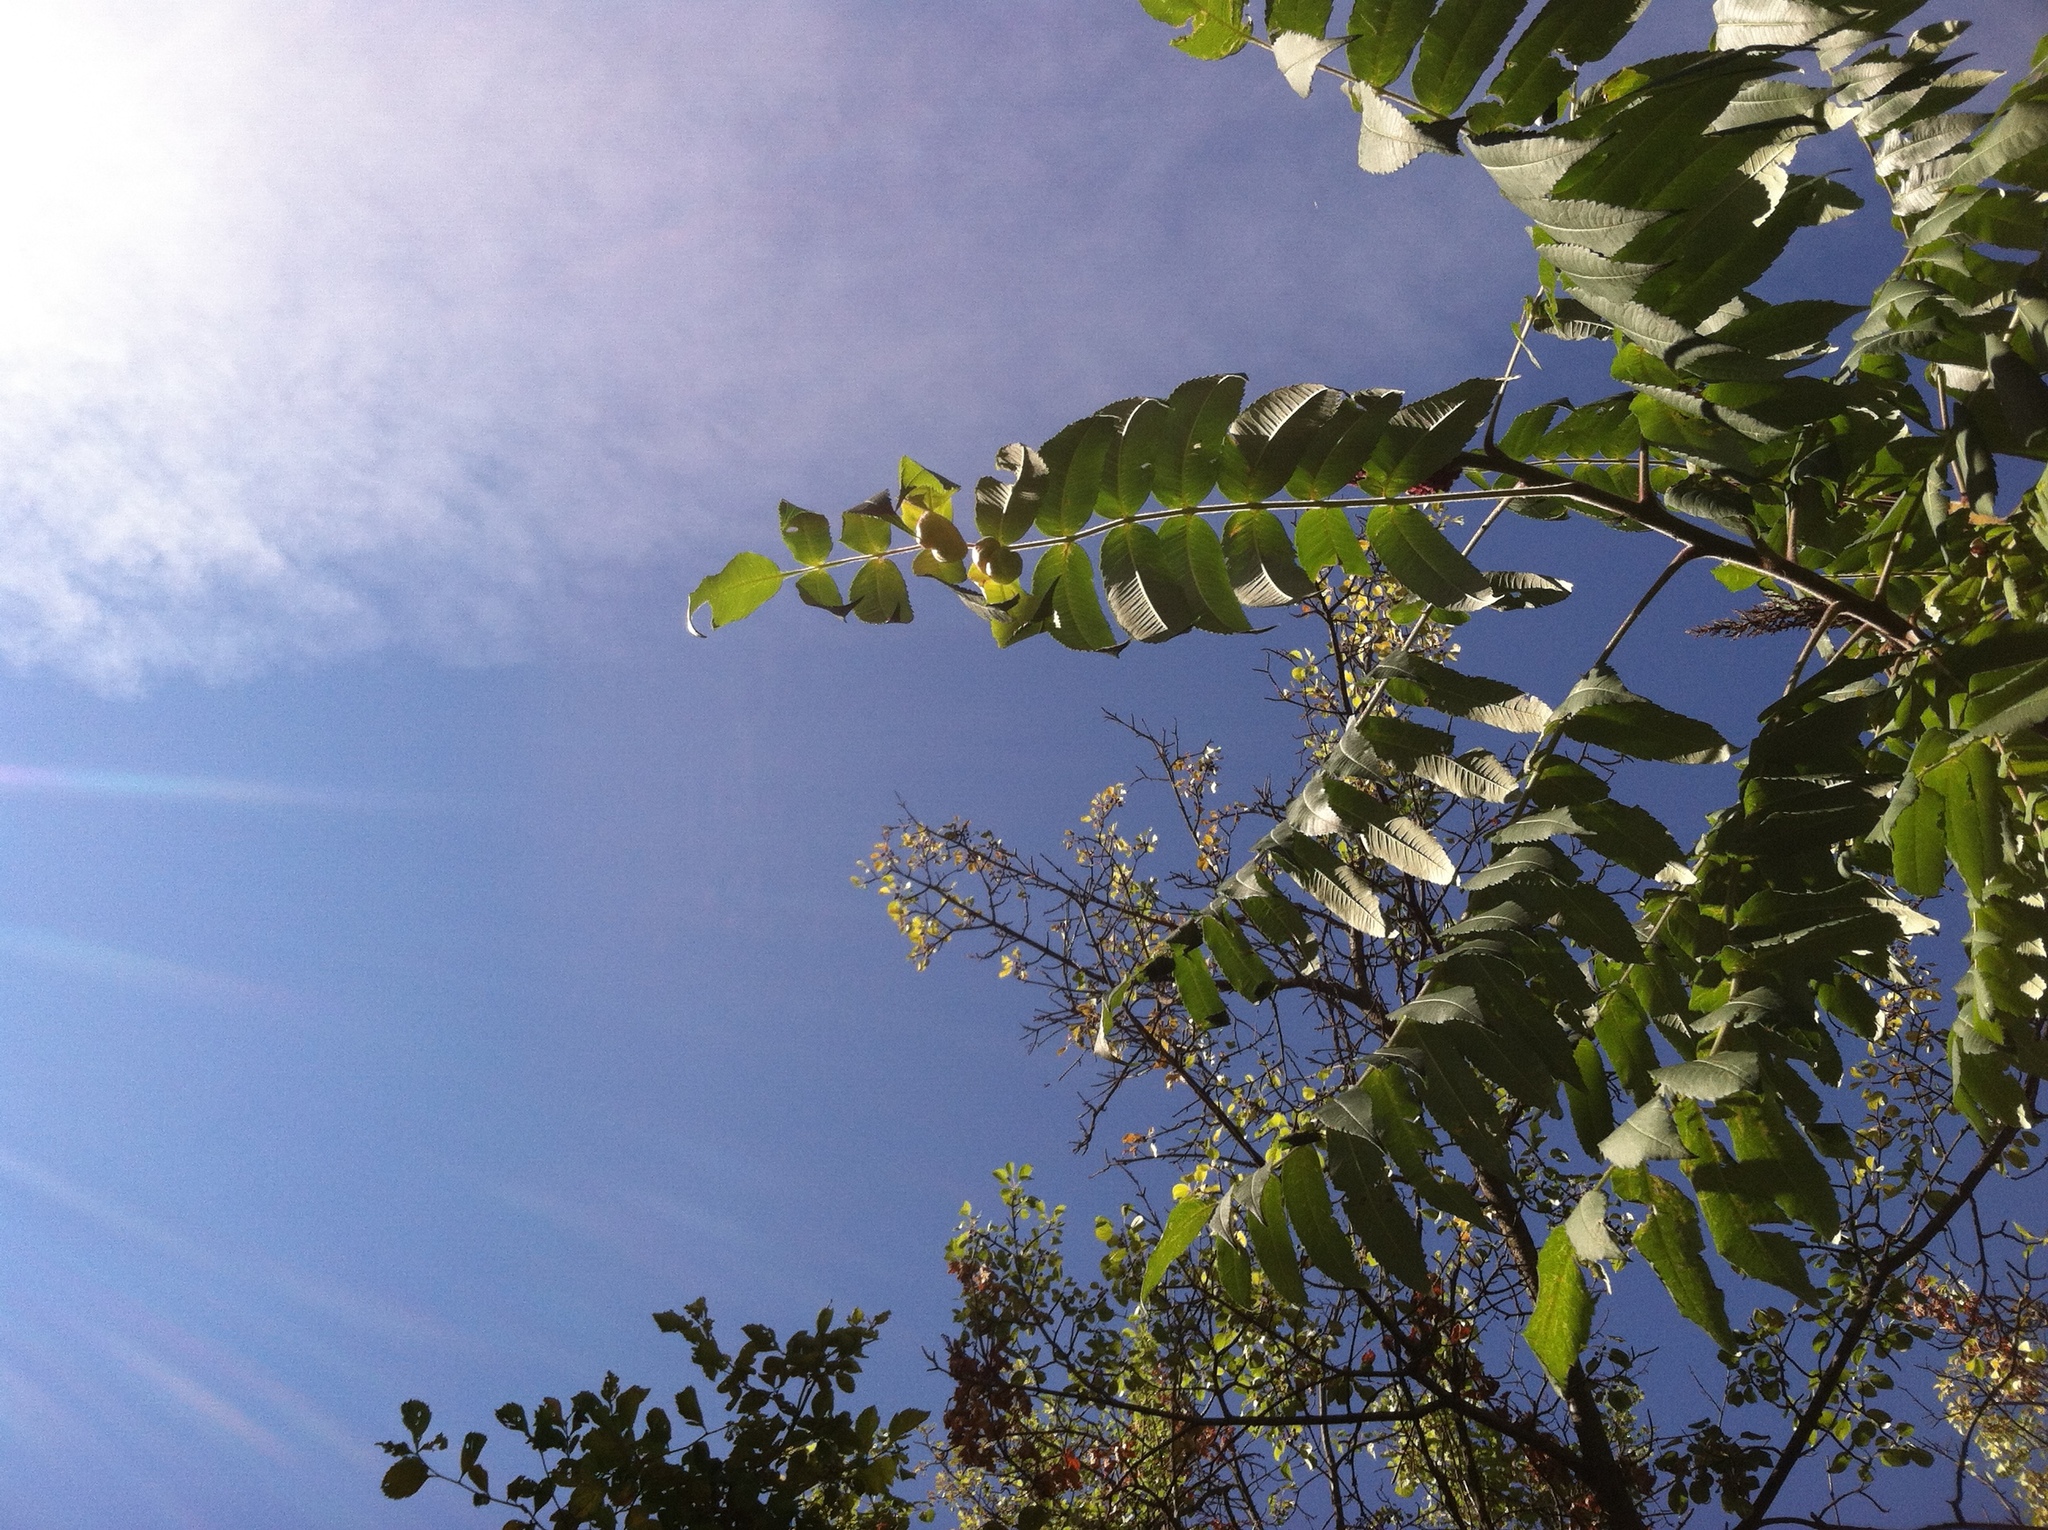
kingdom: Plantae
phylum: Tracheophyta
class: Magnoliopsida
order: Sapindales
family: Anacardiaceae
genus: Rhus
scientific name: Rhus typhina
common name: Staghorn sumac
